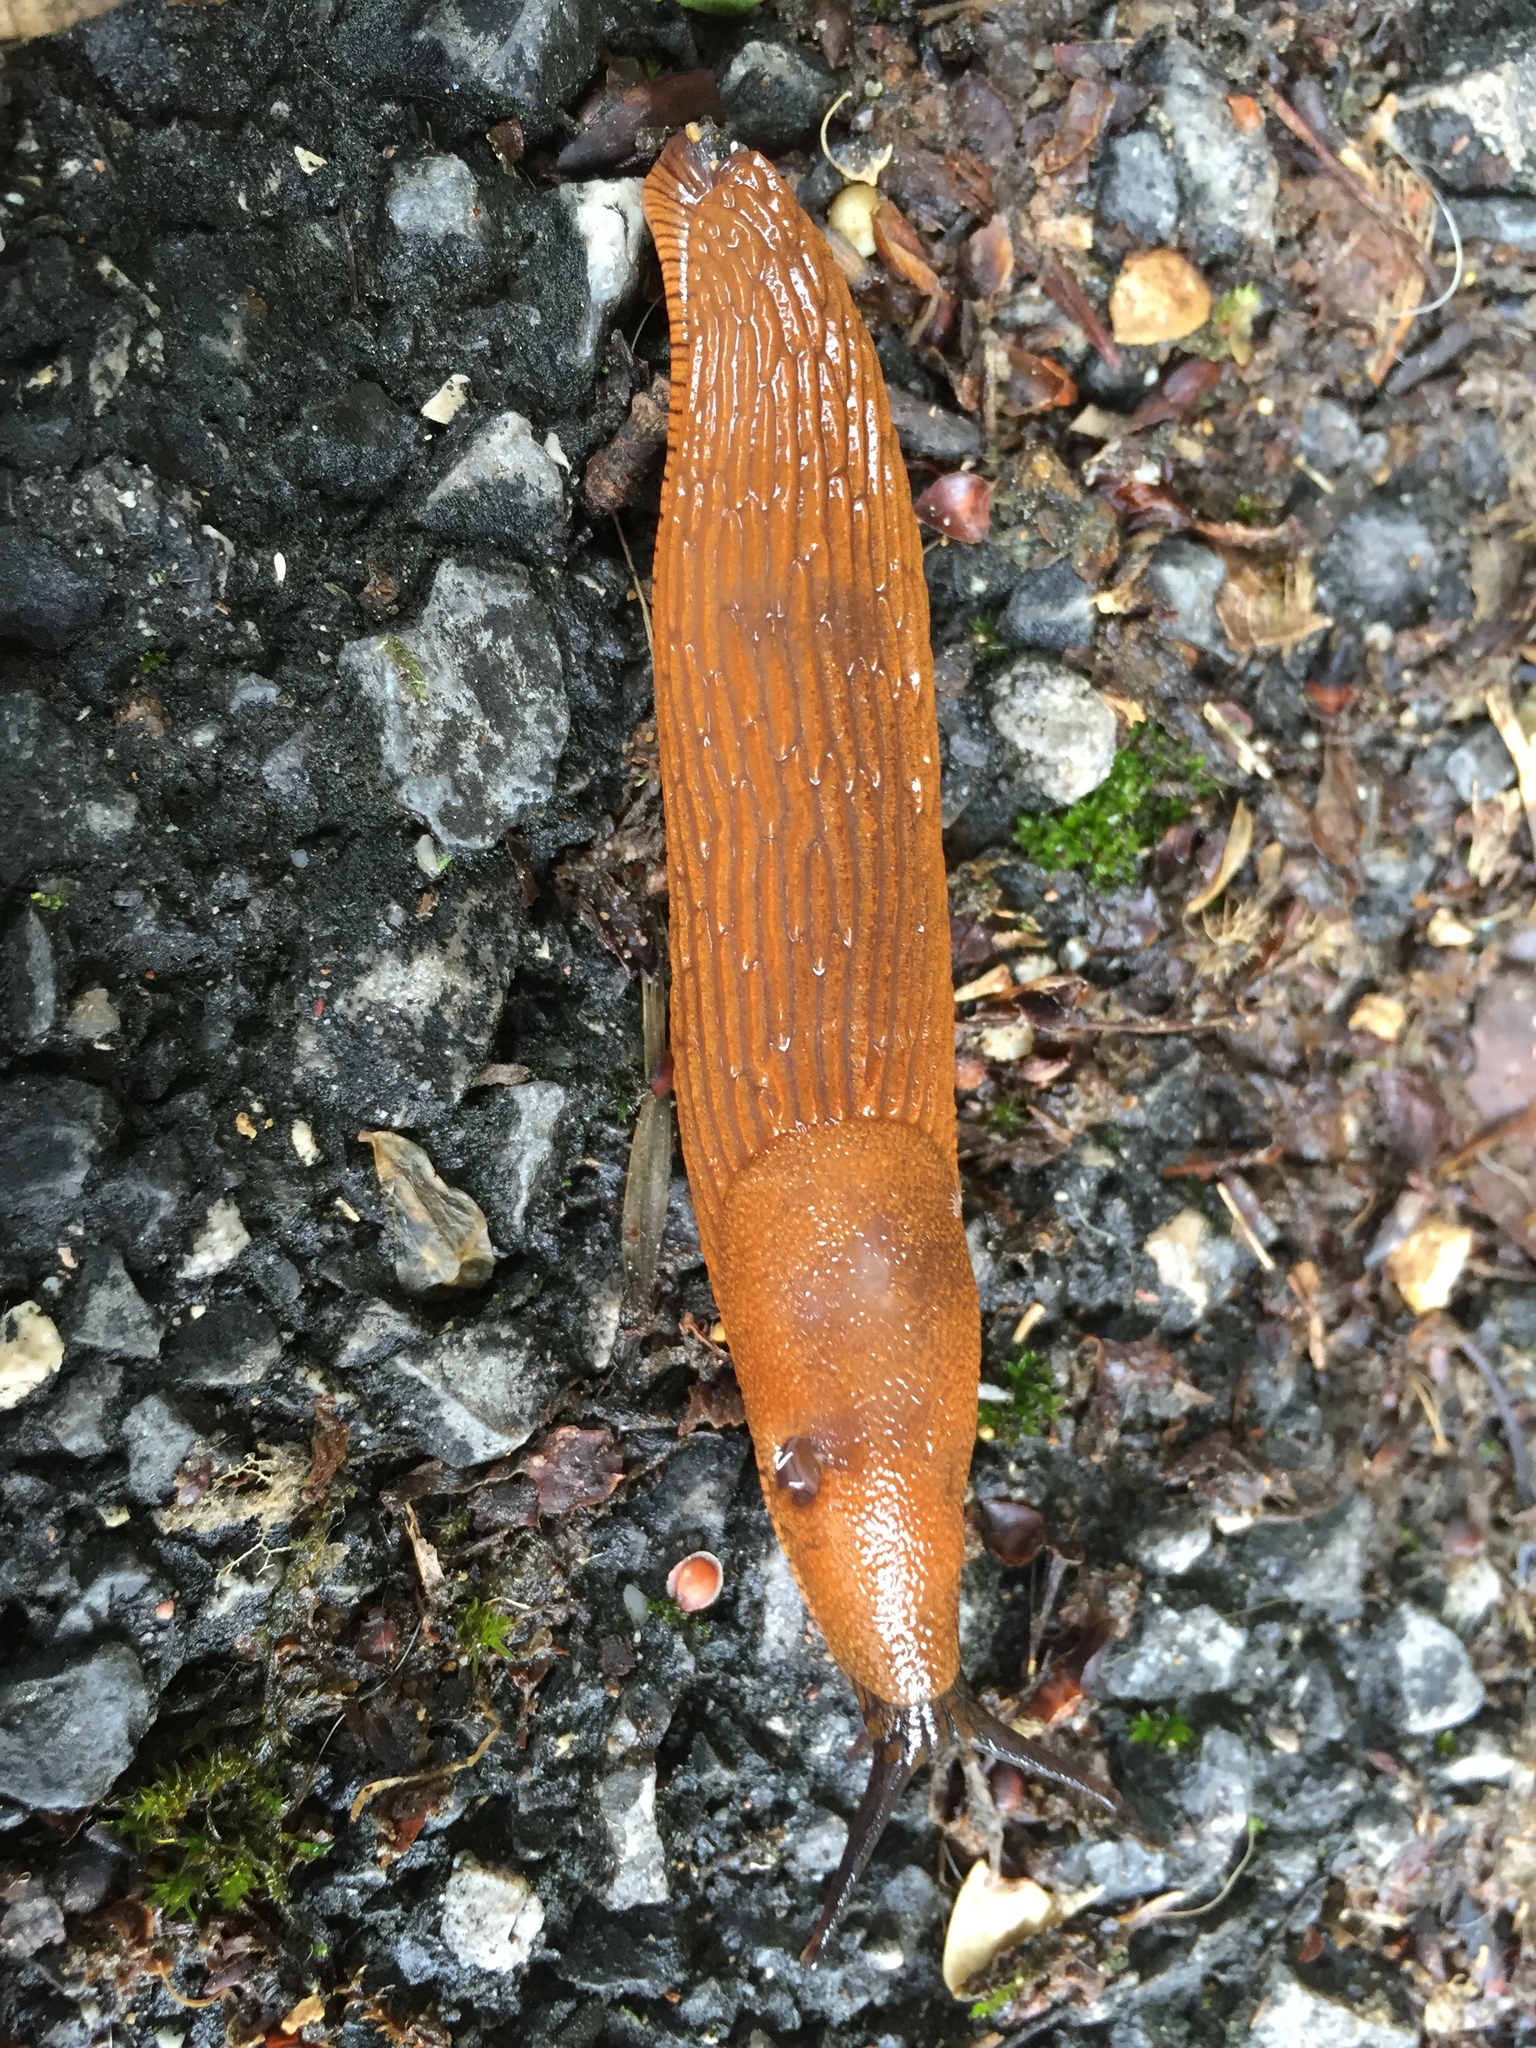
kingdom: Animalia
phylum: Mollusca
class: Gastropoda
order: Stylommatophora
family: Arionidae
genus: Arion
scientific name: Arion rufus
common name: Chocolate arion
